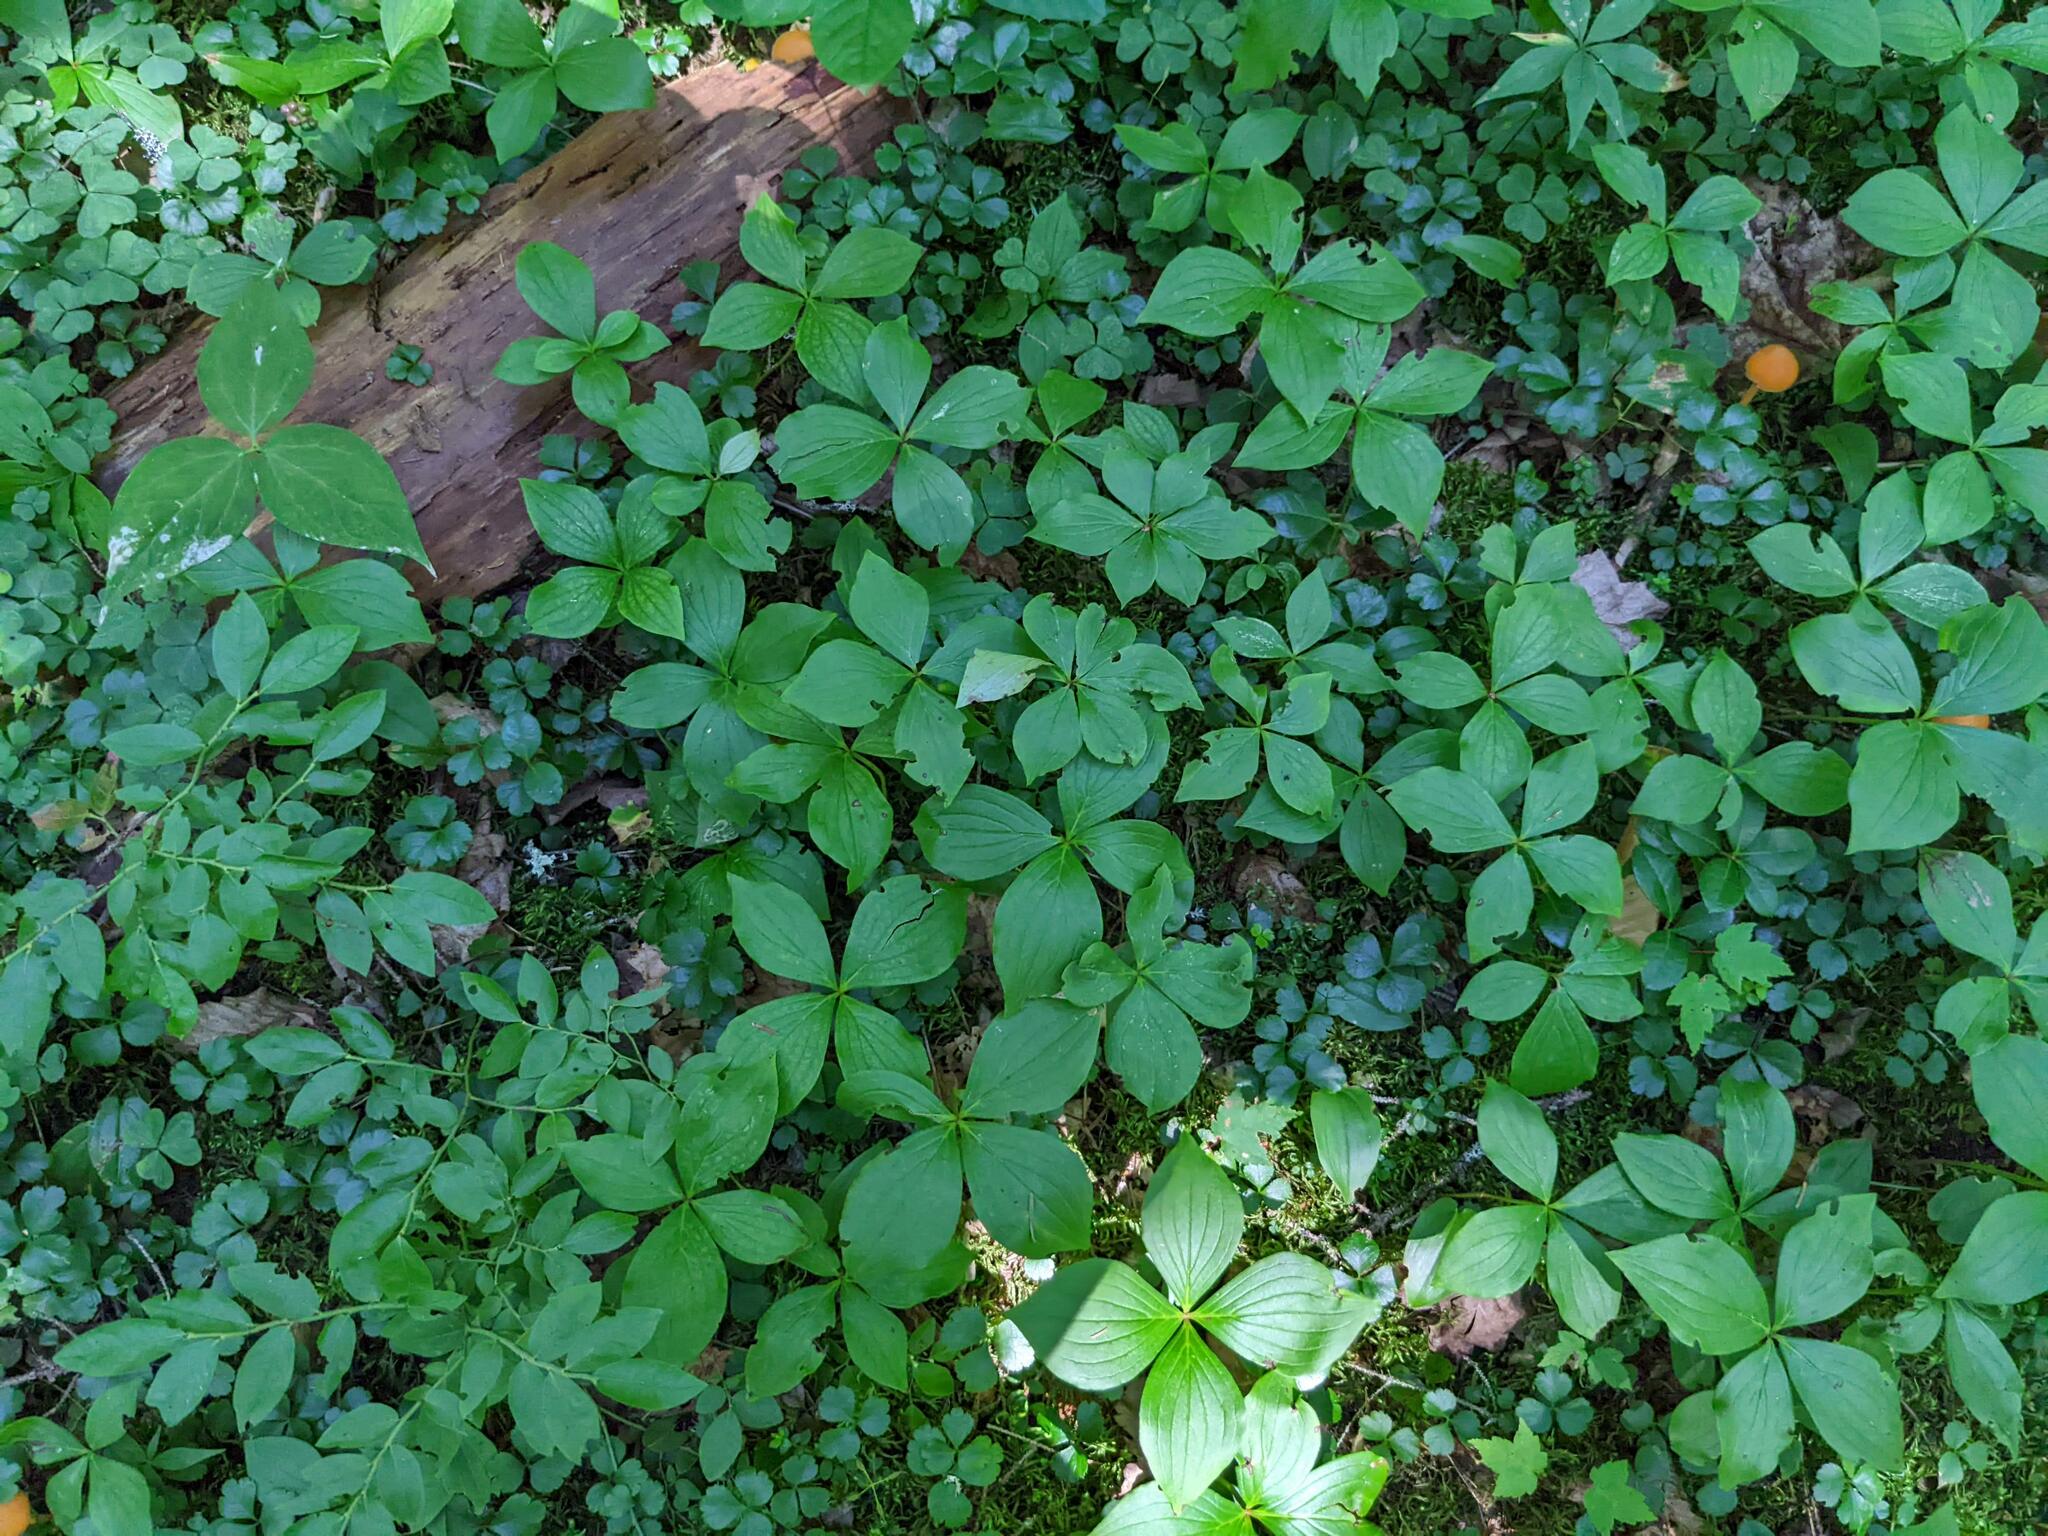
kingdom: Plantae
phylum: Tracheophyta
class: Magnoliopsida
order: Cornales
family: Cornaceae
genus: Cornus
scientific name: Cornus canadensis
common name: Creeping dogwood
